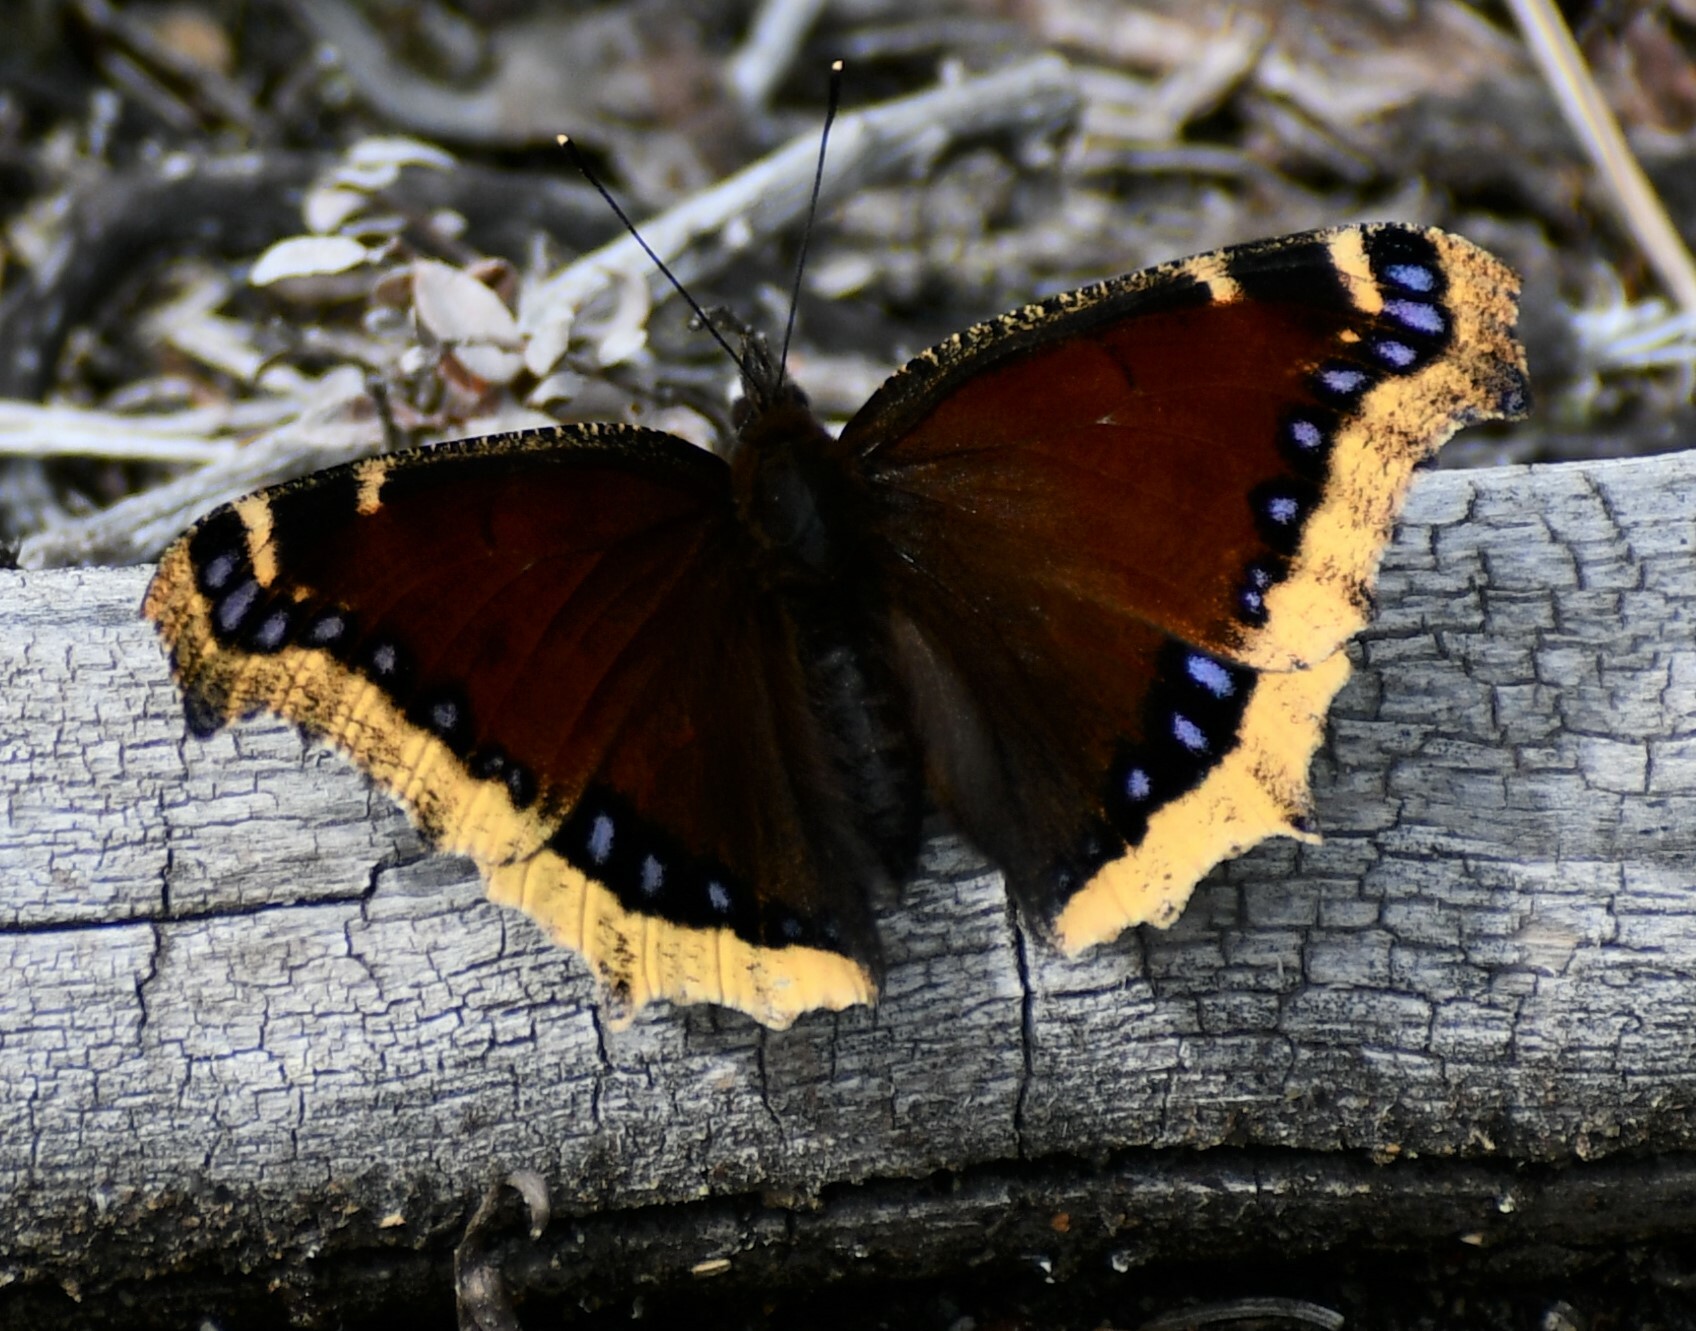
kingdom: Animalia
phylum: Arthropoda
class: Insecta
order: Lepidoptera
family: Nymphalidae
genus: Nymphalis
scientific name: Nymphalis antiopa
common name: Camberwell beauty
